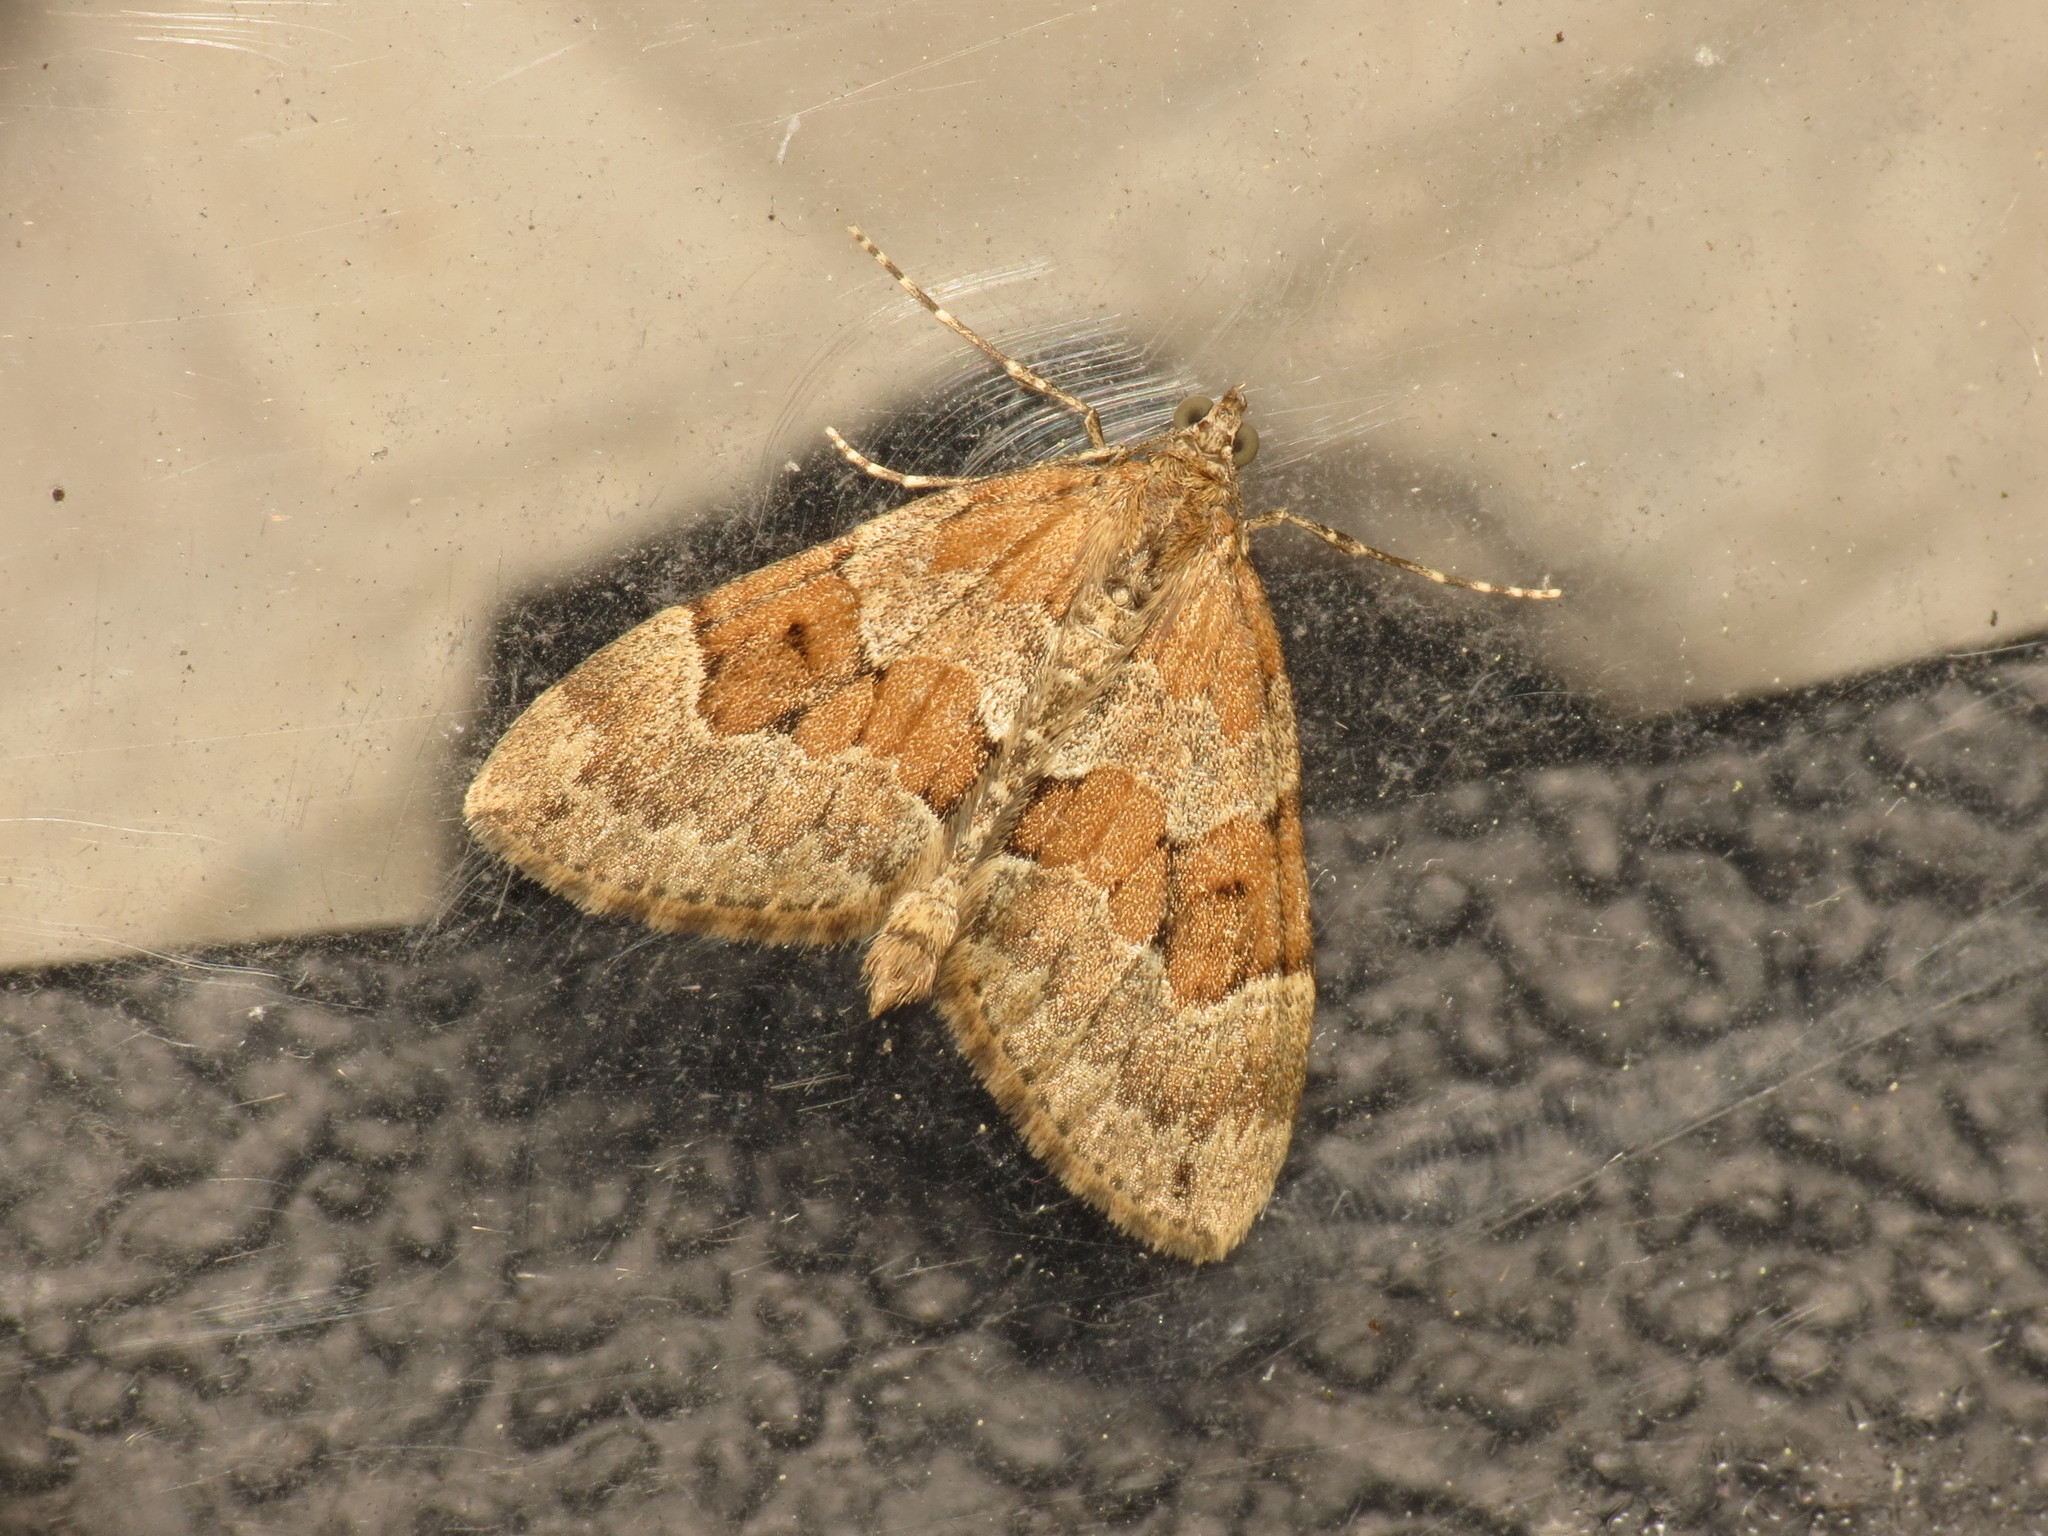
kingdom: Animalia
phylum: Arthropoda
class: Insecta
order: Lepidoptera
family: Geometridae
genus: Thera
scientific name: Thera obeliscata
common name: Grey pine carpet
